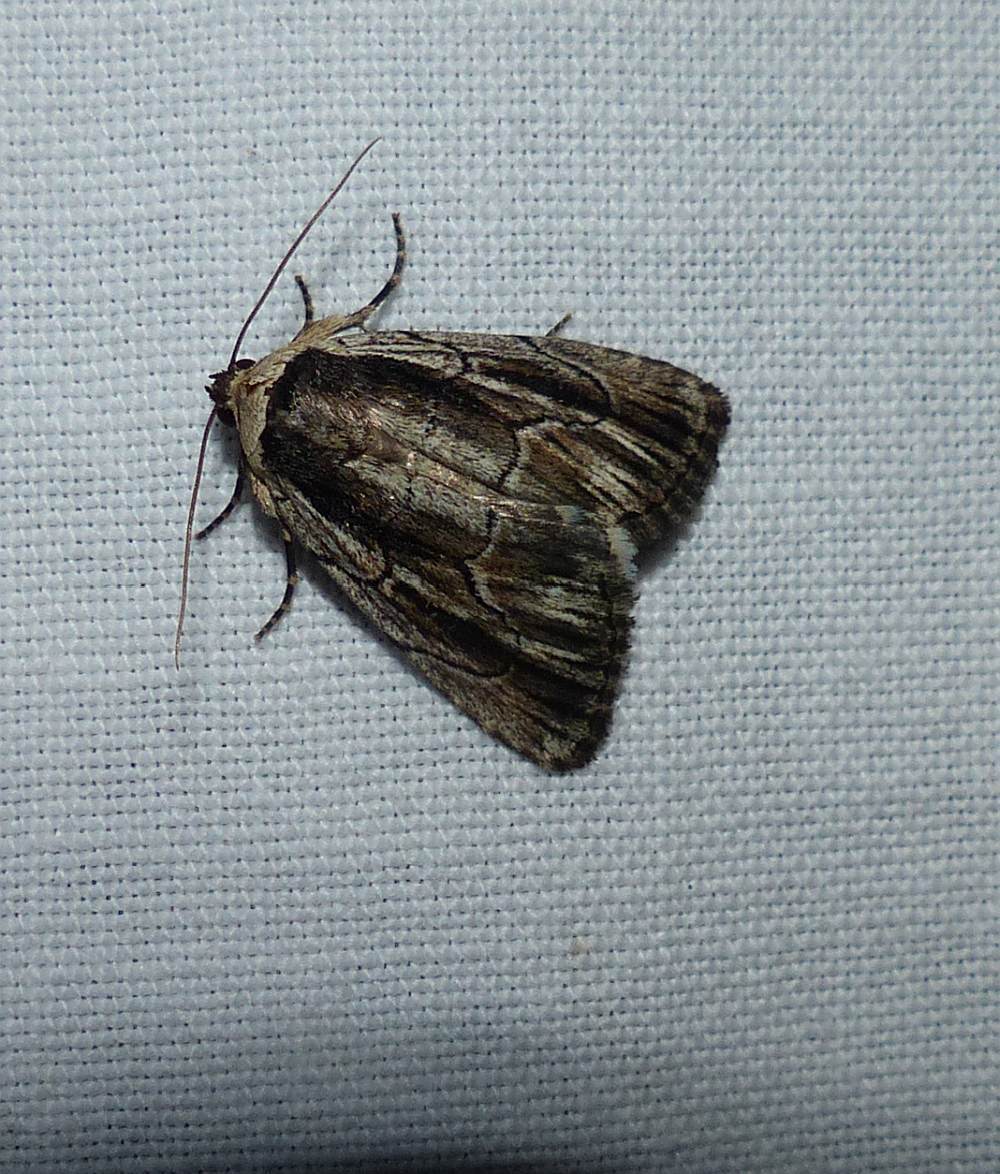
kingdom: Animalia
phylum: Arthropoda
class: Insecta
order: Lepidoptera
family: Noctuidae
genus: Sympistis
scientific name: Sympistis badistriga
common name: Brown-lined sallow moth
